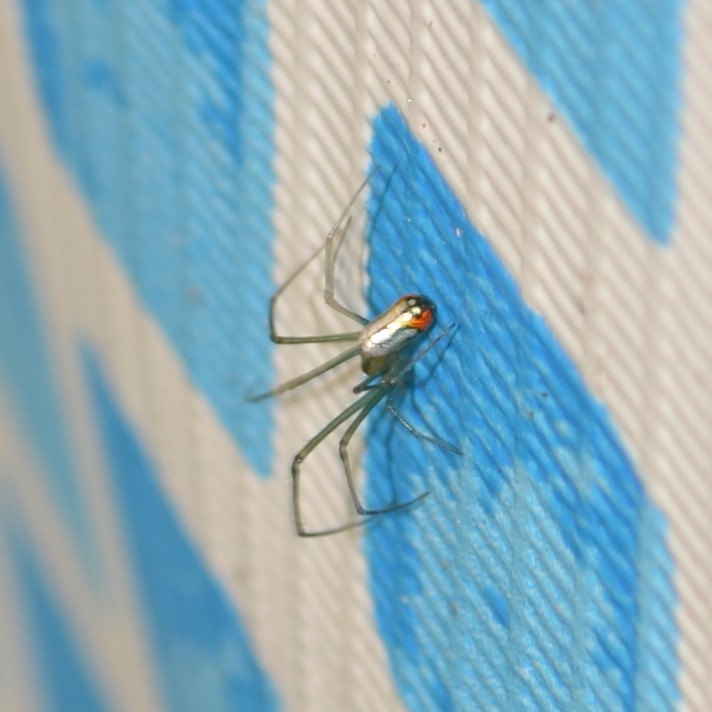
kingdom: Animalia
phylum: Arthropoda
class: Arachnida
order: Araneae
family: Tetragnathidae
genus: Leucauge
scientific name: Leucauge argyrobapta
